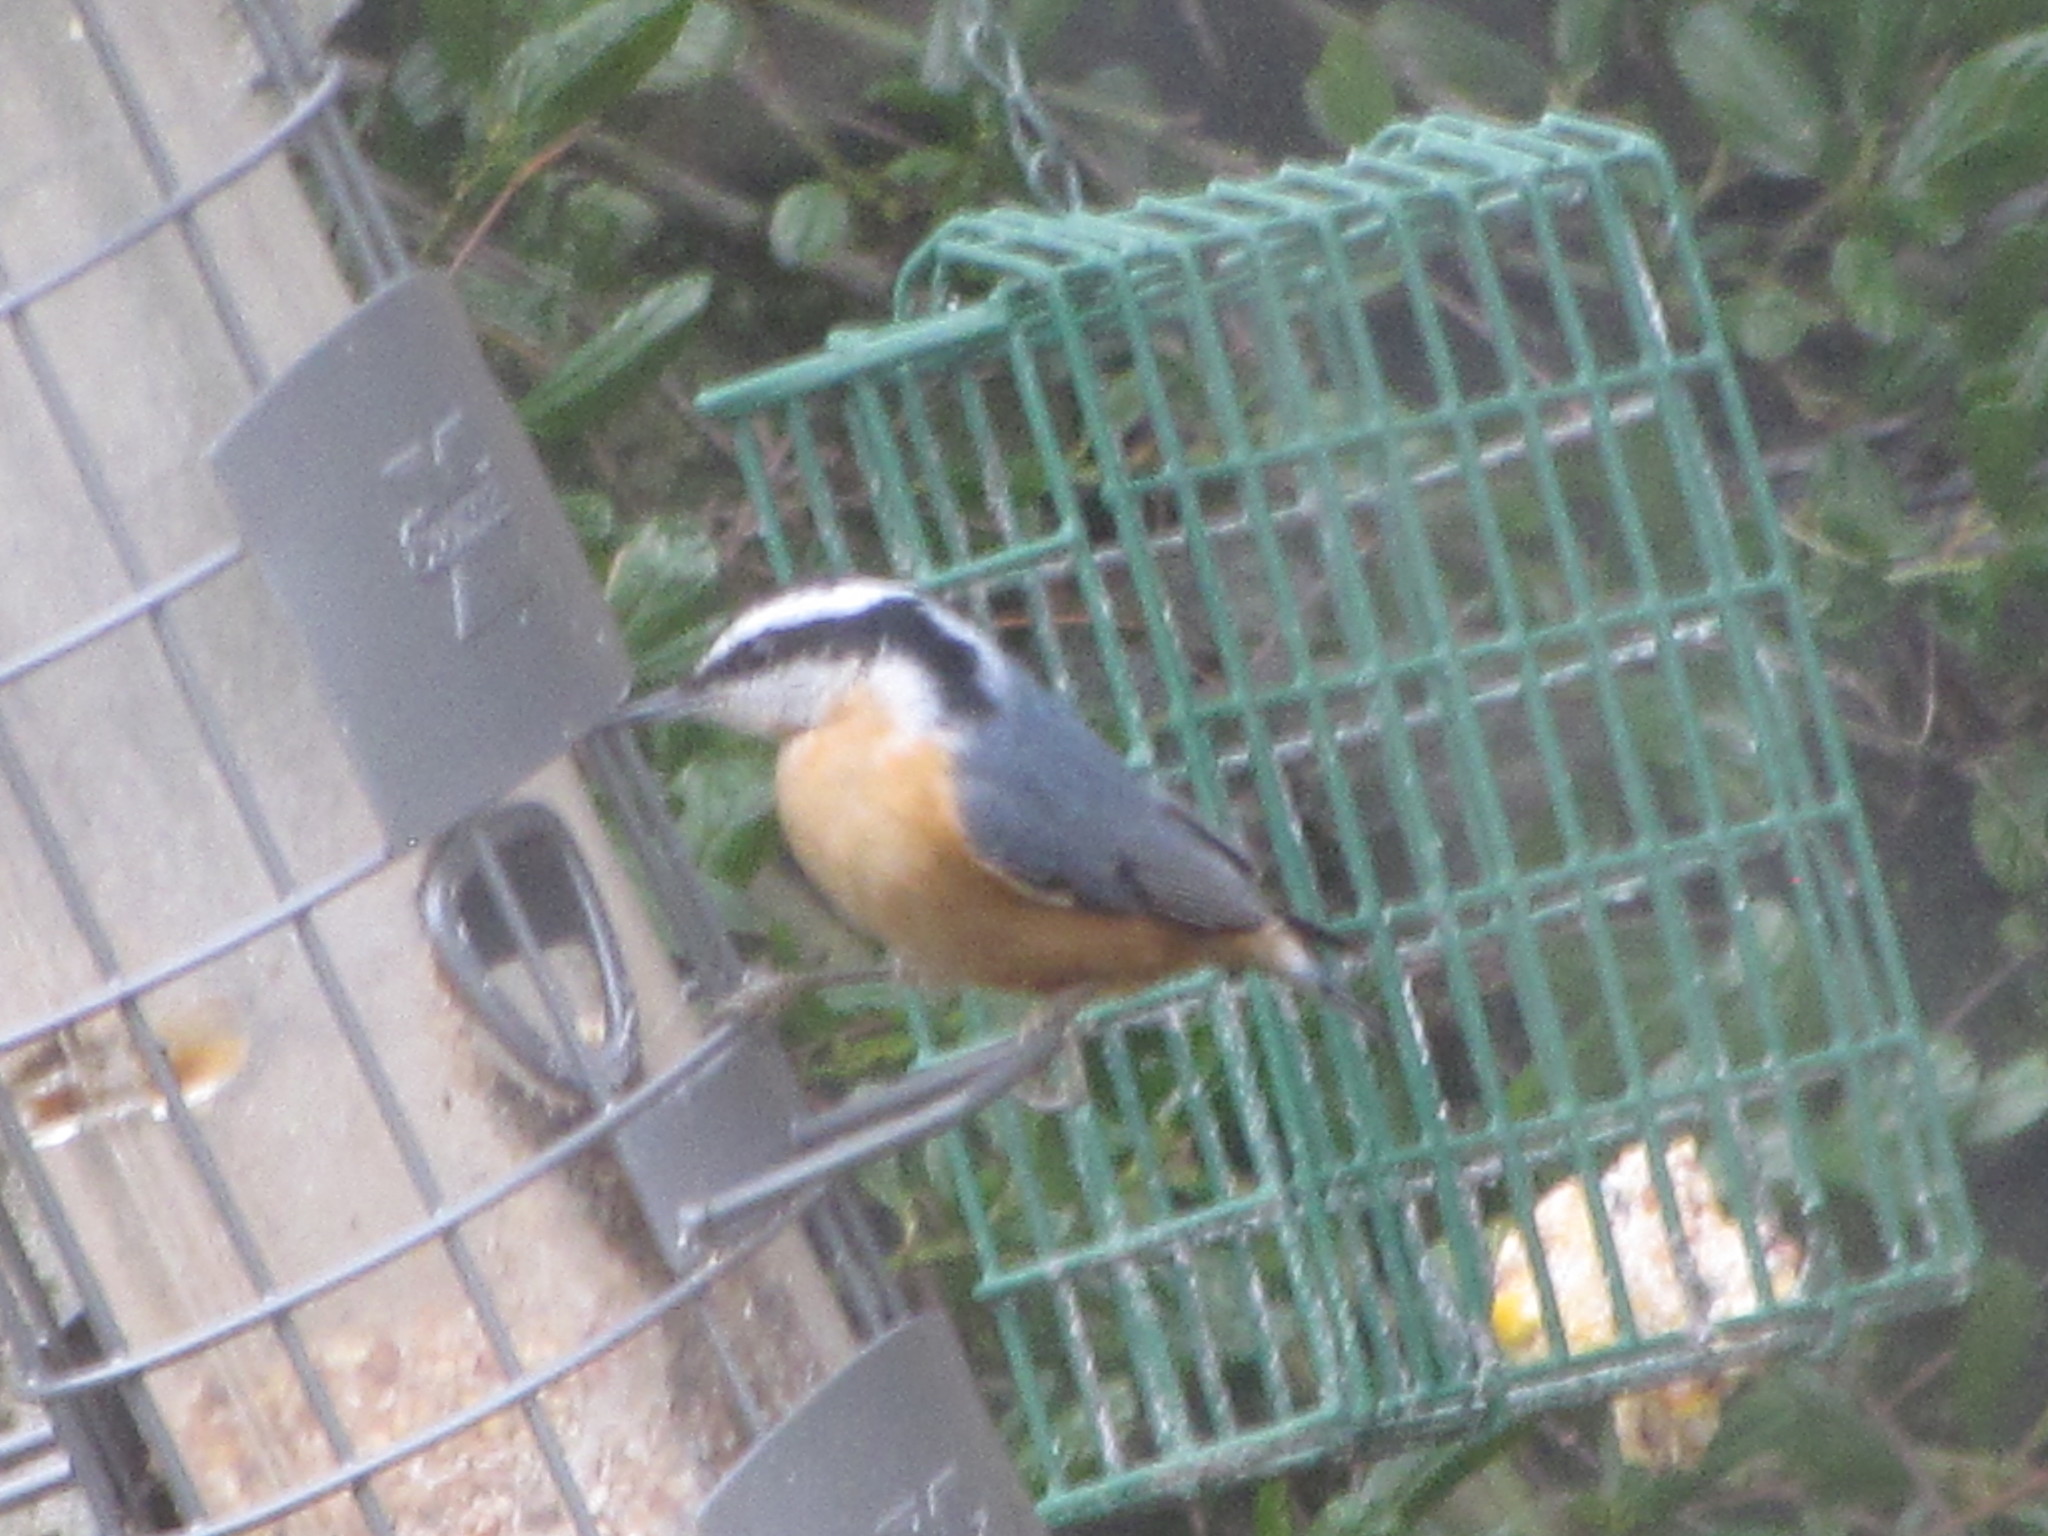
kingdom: Animalia
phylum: Chordata
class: Aves
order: Passeriformes
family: Sittidae
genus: Sitta
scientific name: Sitta canadensis
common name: Red-breasted nuthatch
